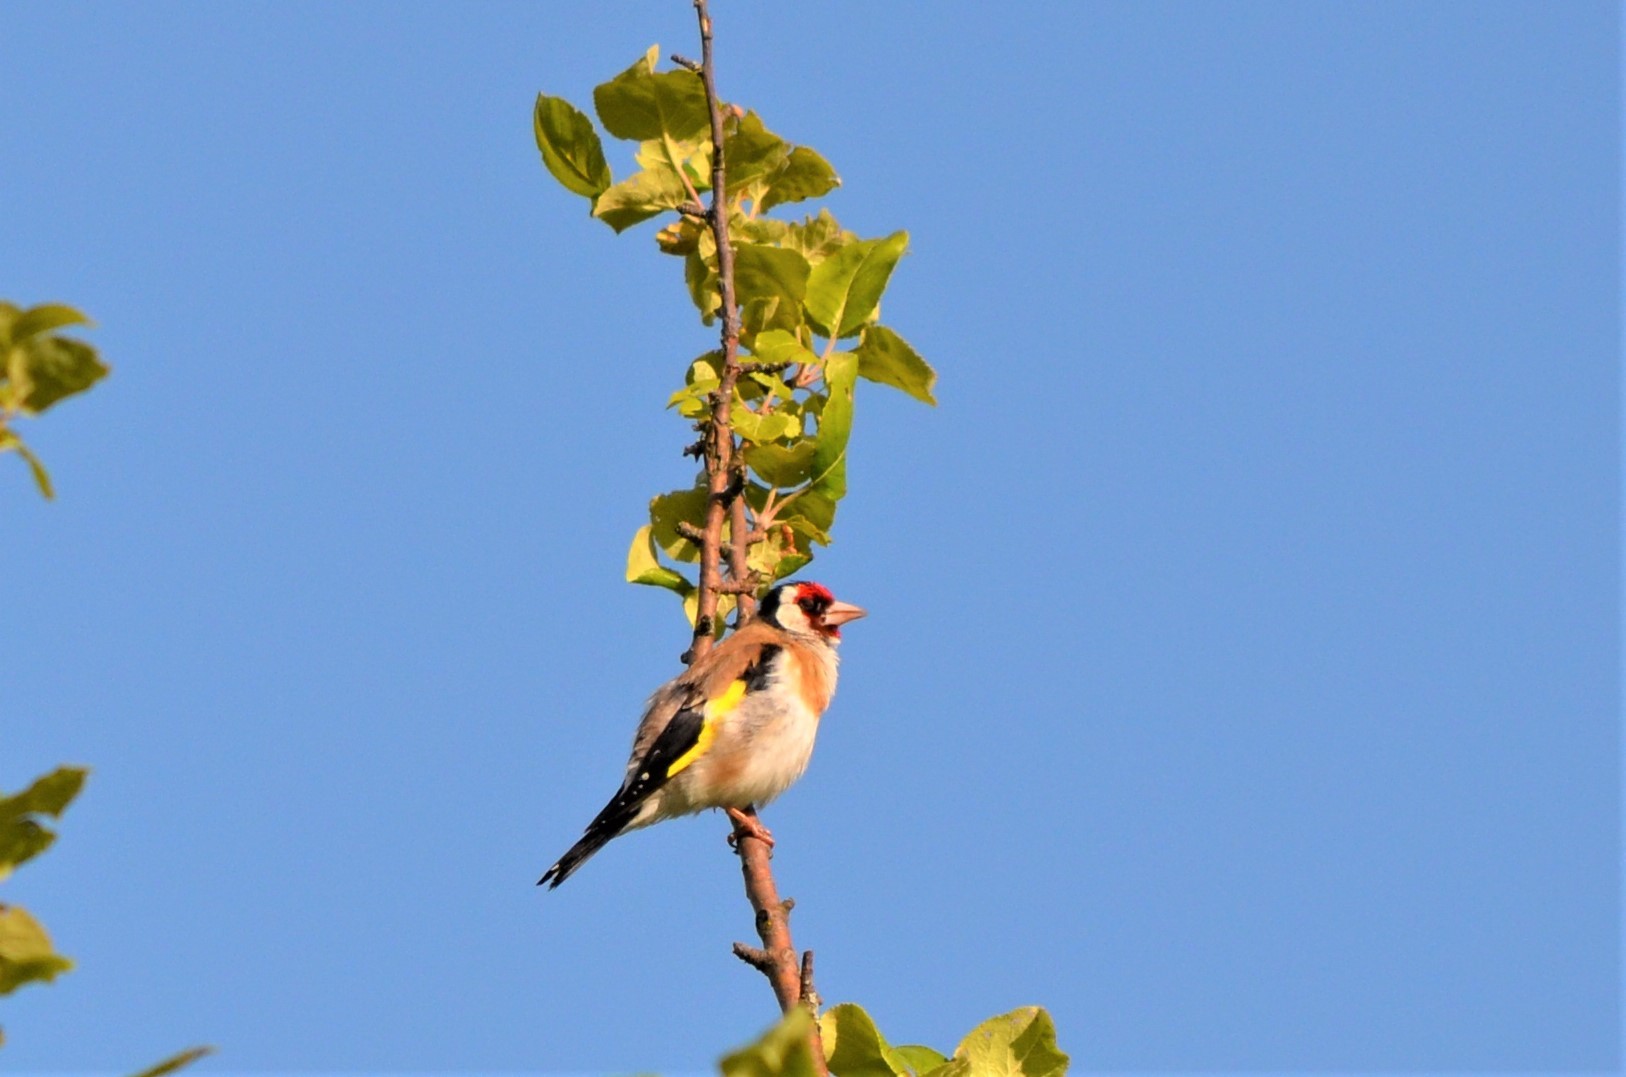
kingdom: Animalia
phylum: Chordata
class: Aves
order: Passeriformes
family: Fringillidae
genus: Carduelis
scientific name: Carduelis carduelis
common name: European goldfinch
